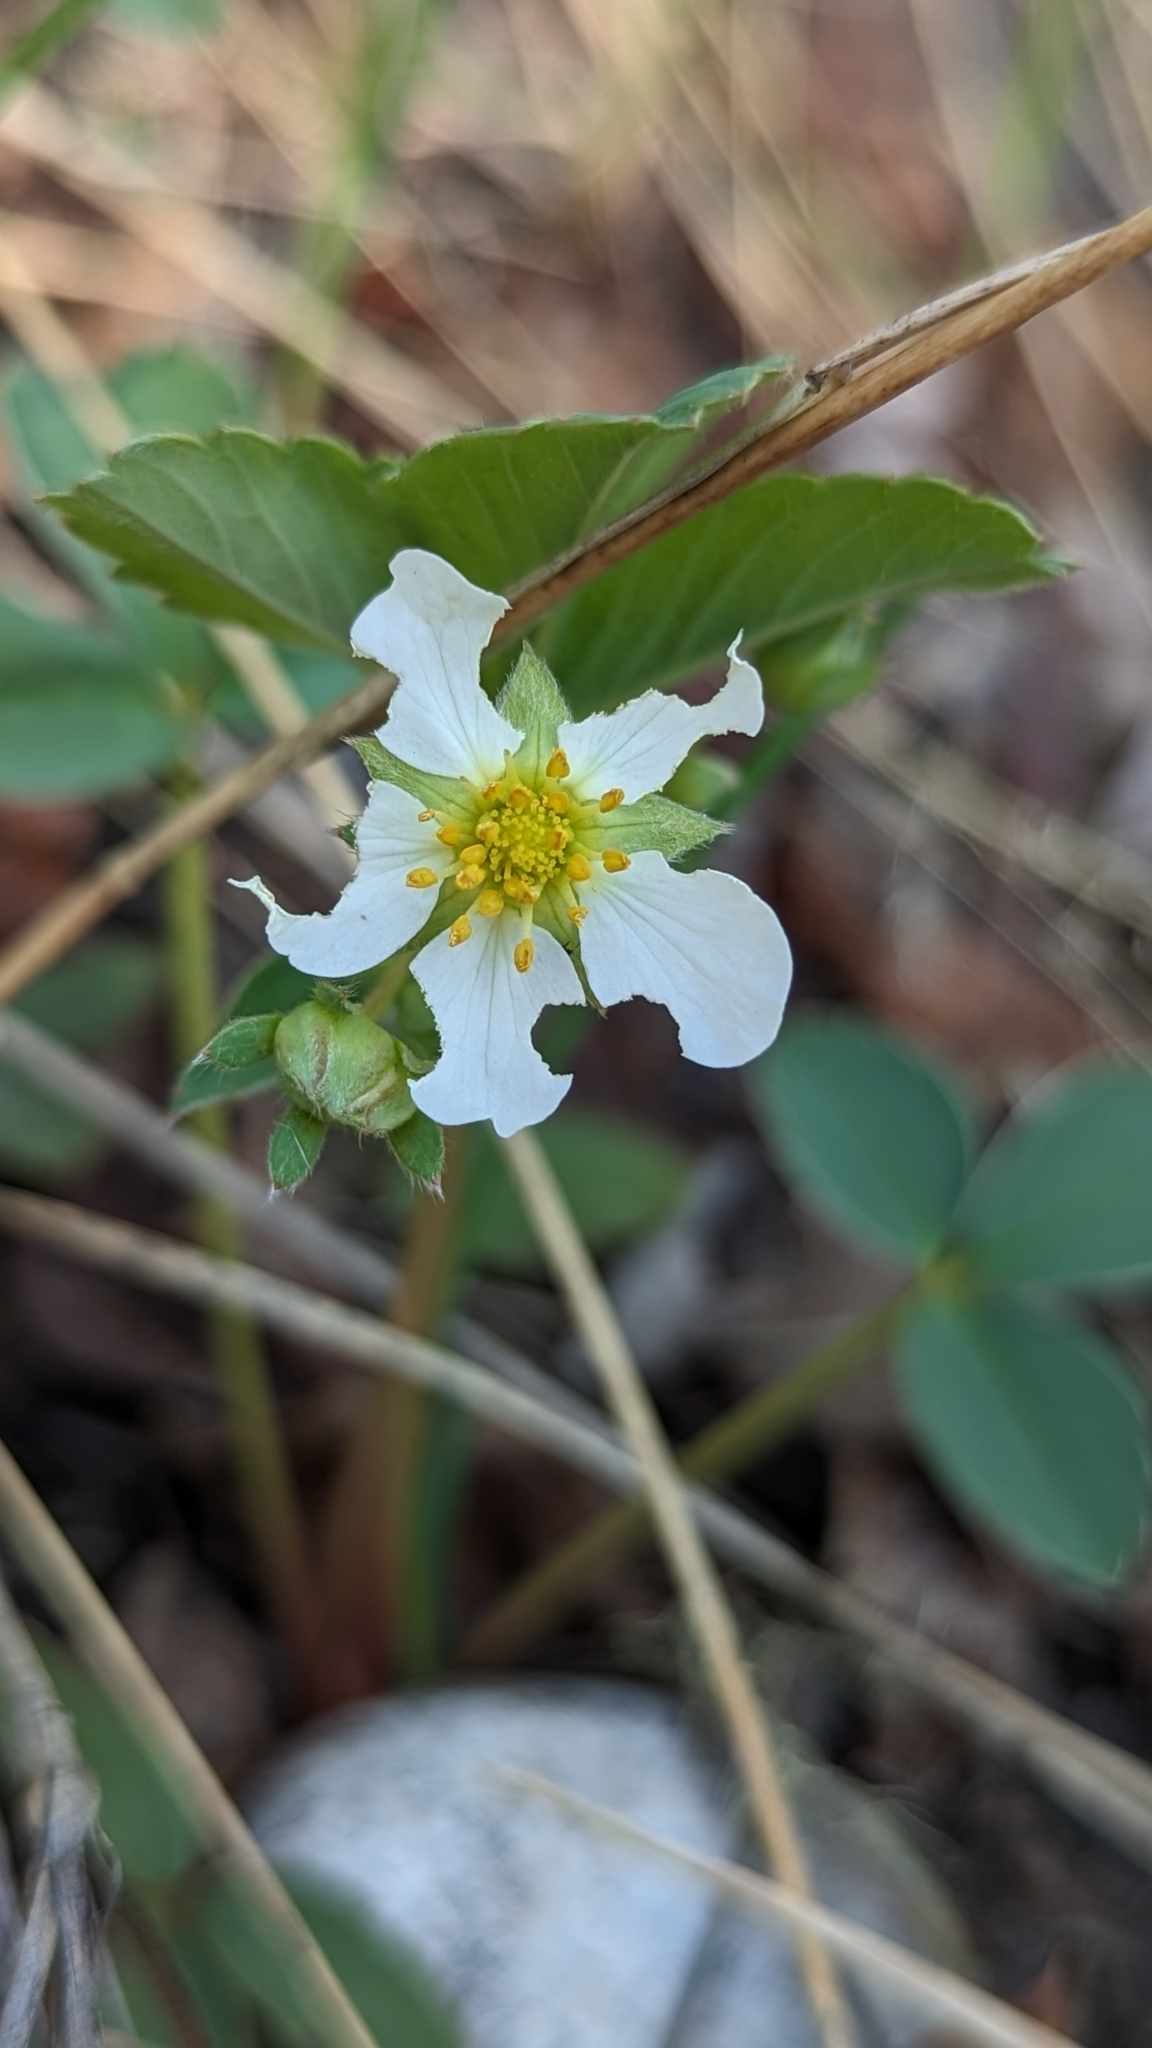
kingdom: Plantae
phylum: Tracheophyta
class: Magnoliopsida
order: Rosales
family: Rosaceae
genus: Fragaria
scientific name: Fragaria virginiana
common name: Thickleaved wild strawberry
